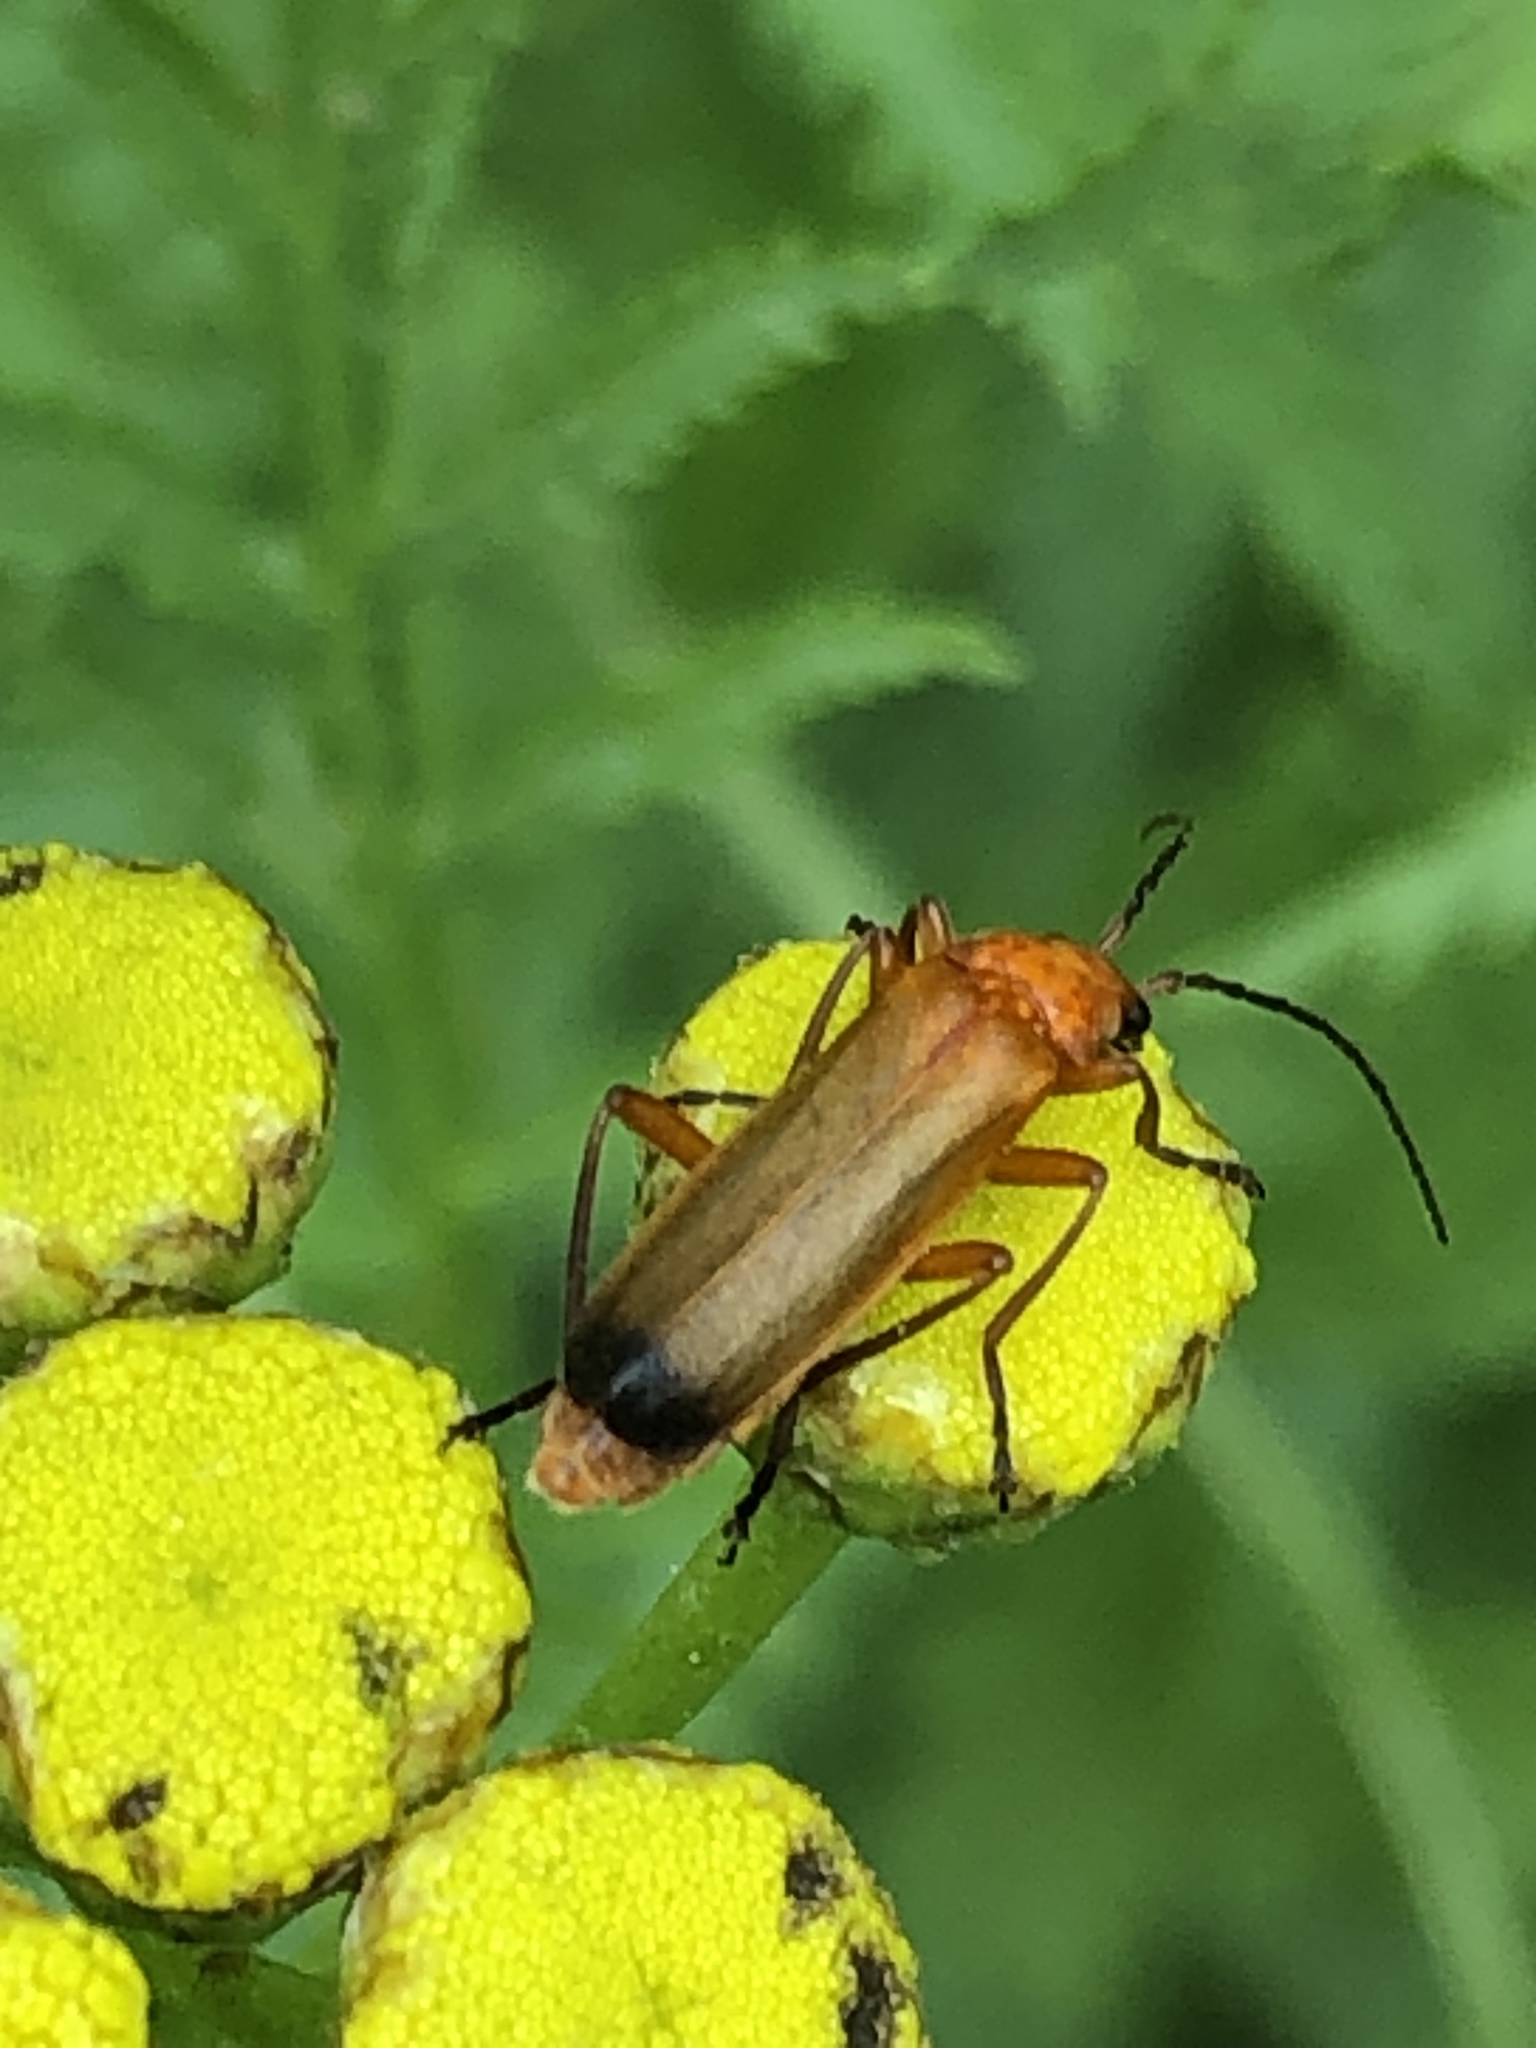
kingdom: Animalia
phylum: Arthropoda
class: Insecta
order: Coleoptera
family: Cantharidae
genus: Rhagonycha
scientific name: Rhagonycha fulva
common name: Common red soldier beetle
